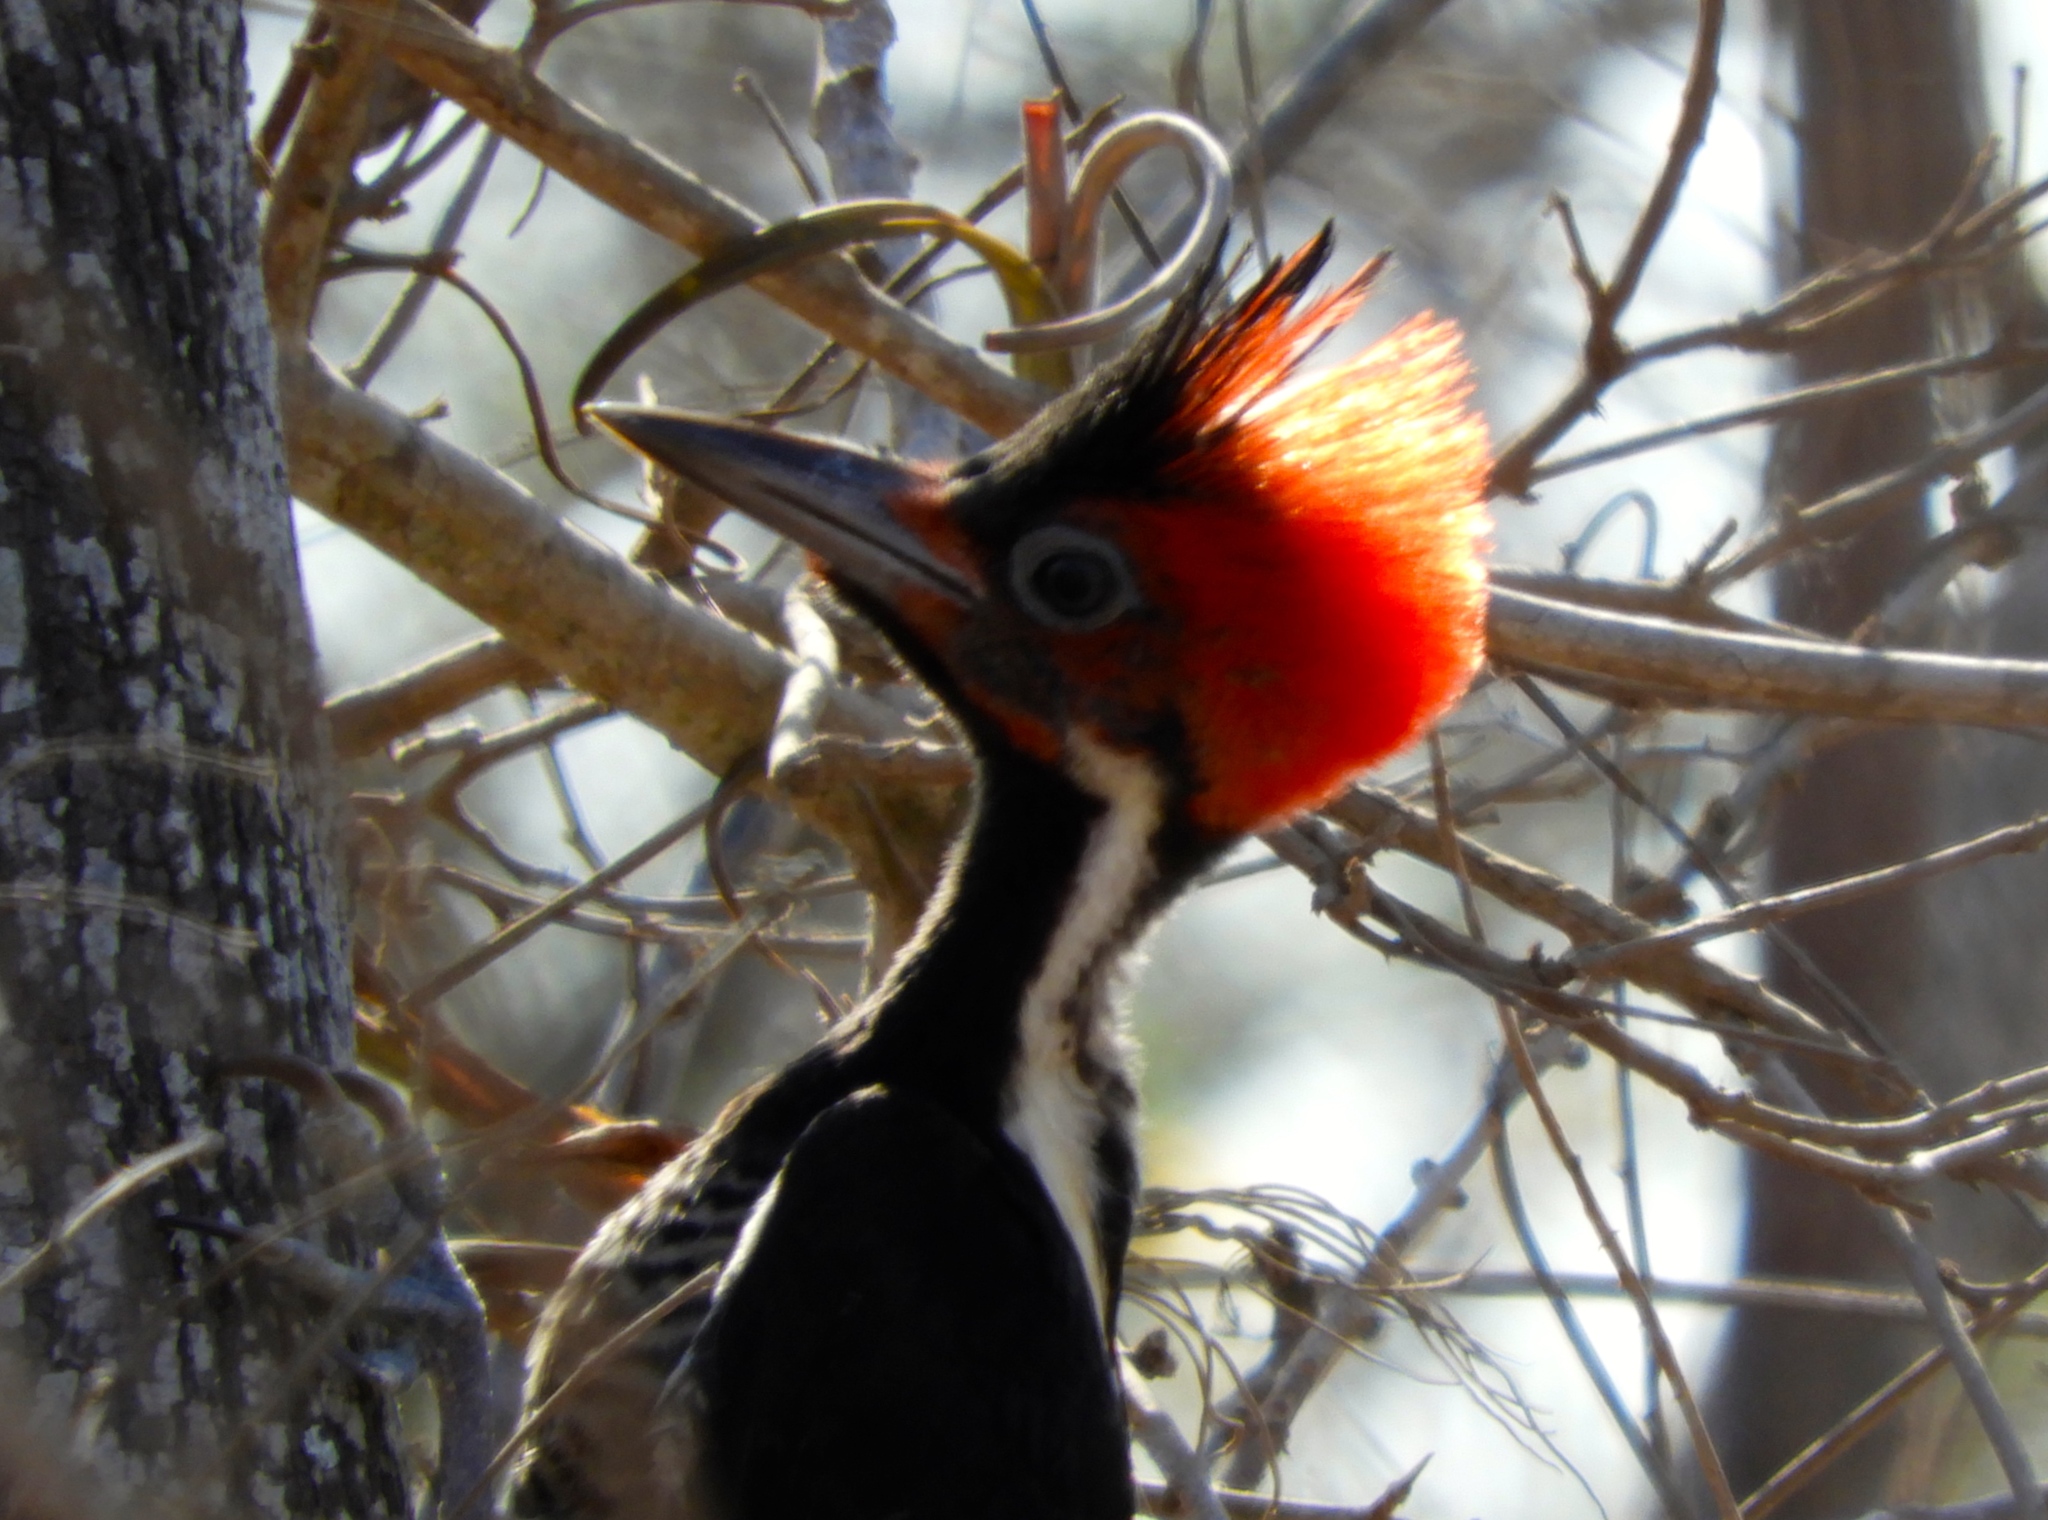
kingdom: Animalia
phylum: Chordata
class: Aves
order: Piciformes
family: Picidae
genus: Campephilus
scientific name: Campephilus guatemalensis
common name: Pale-billed woodpecker
